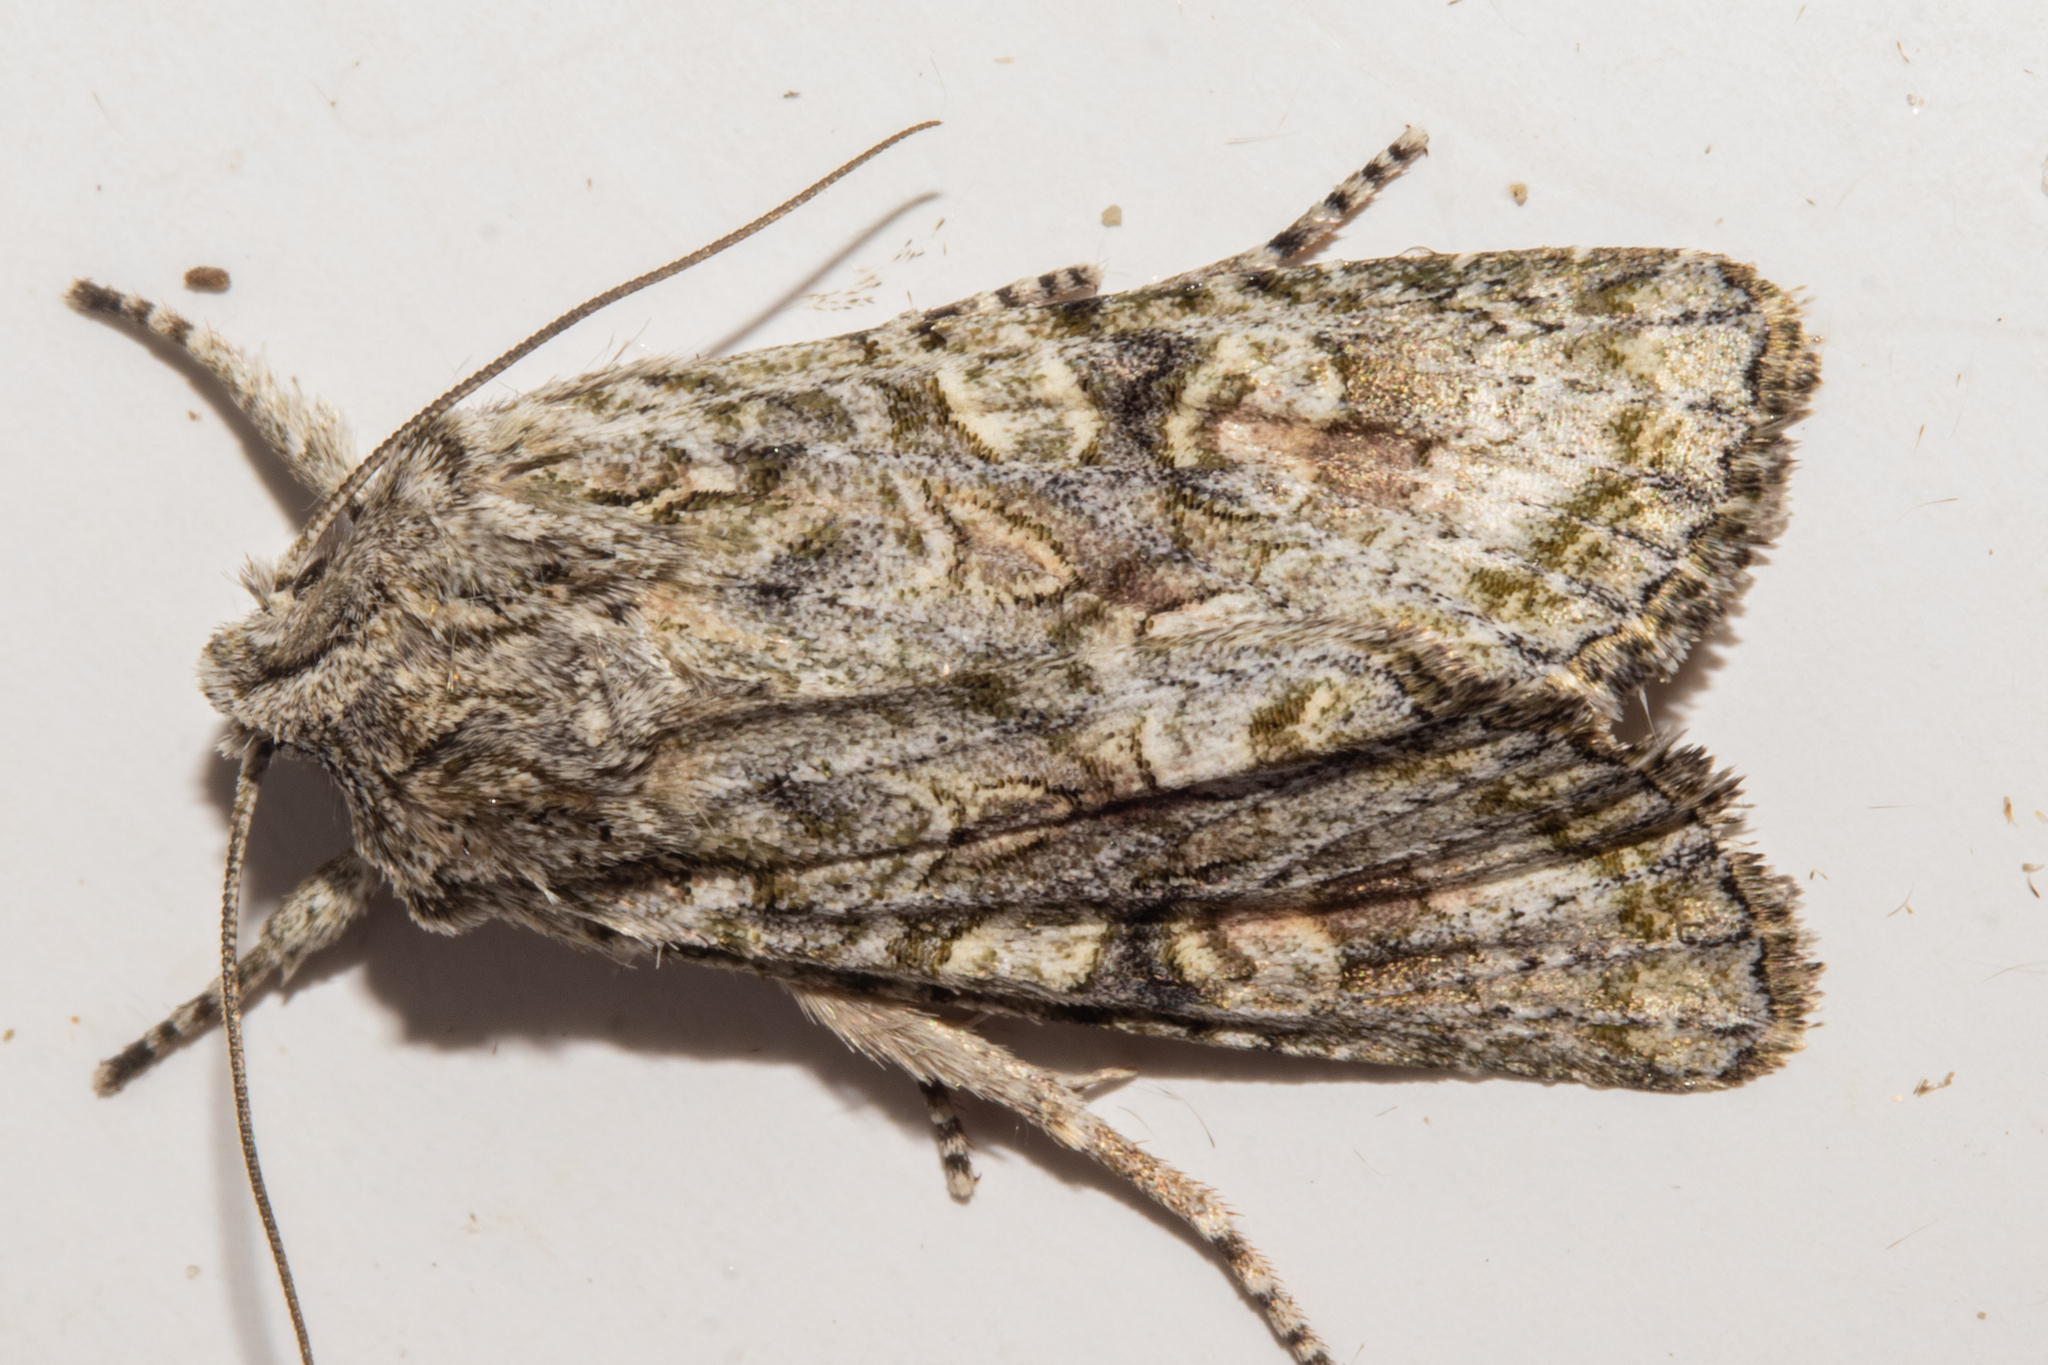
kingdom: Animalia
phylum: Arthropoda
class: Insecta
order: Lepidoptera
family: Noctuidae
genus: Ichneutica
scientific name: Ichneutica mutans
